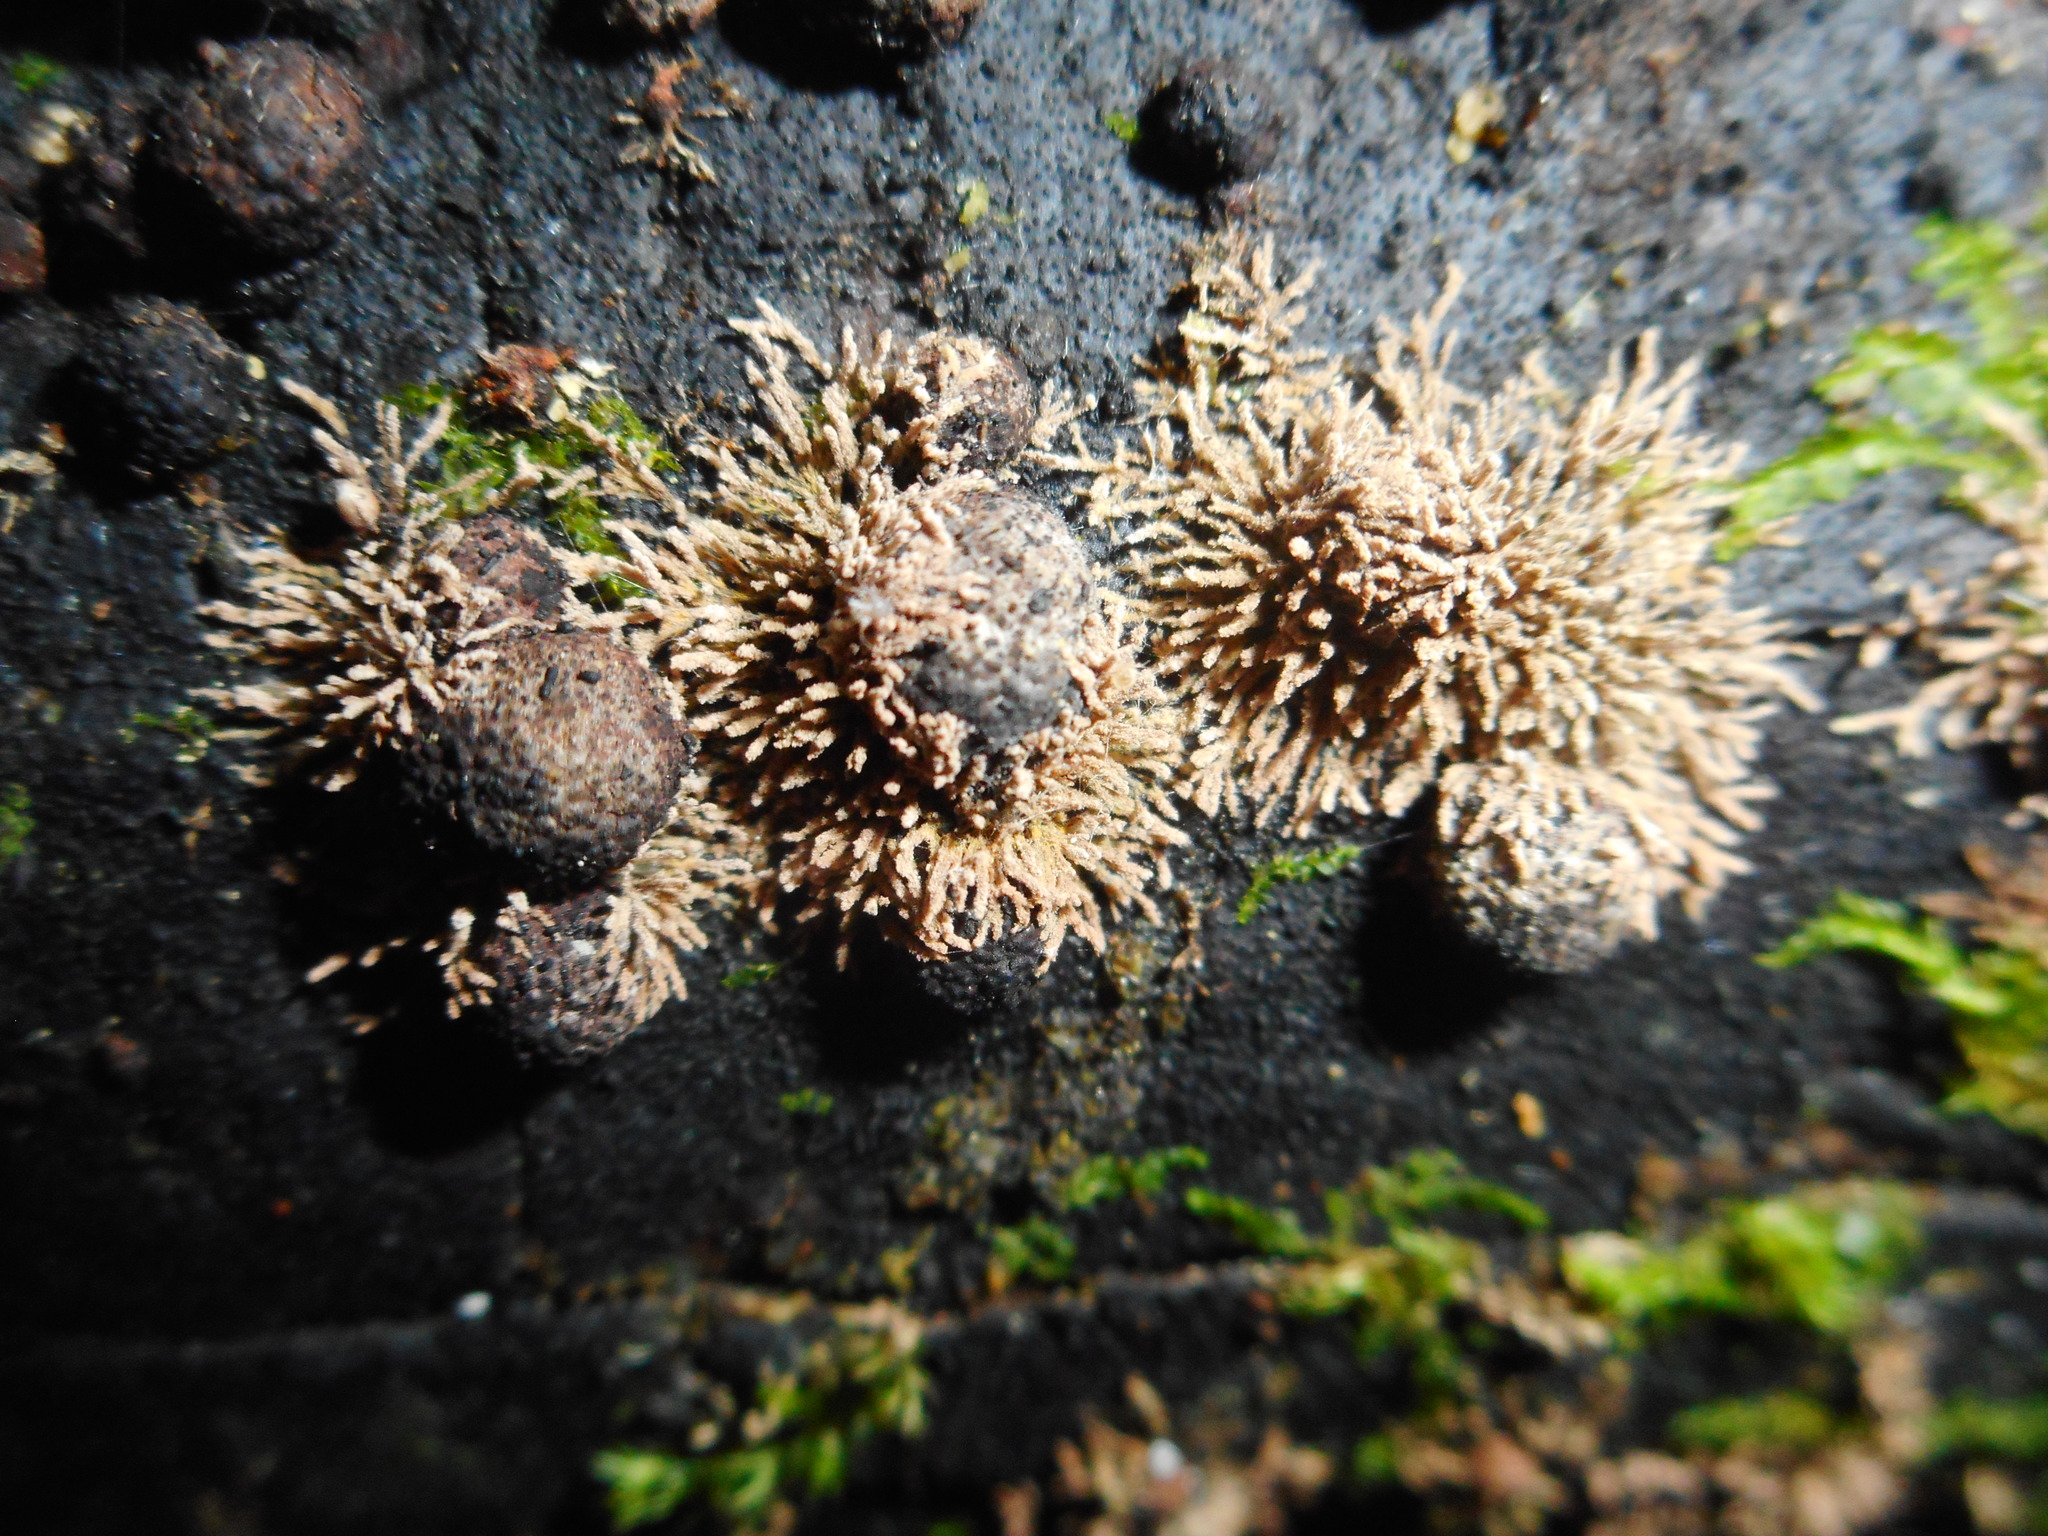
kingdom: Fungi
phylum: Ascomycota
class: Sordariomycetes
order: Xylariales
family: Hypoxylaceae
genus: Hypoxylon
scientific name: Hypoxylon howeanum
